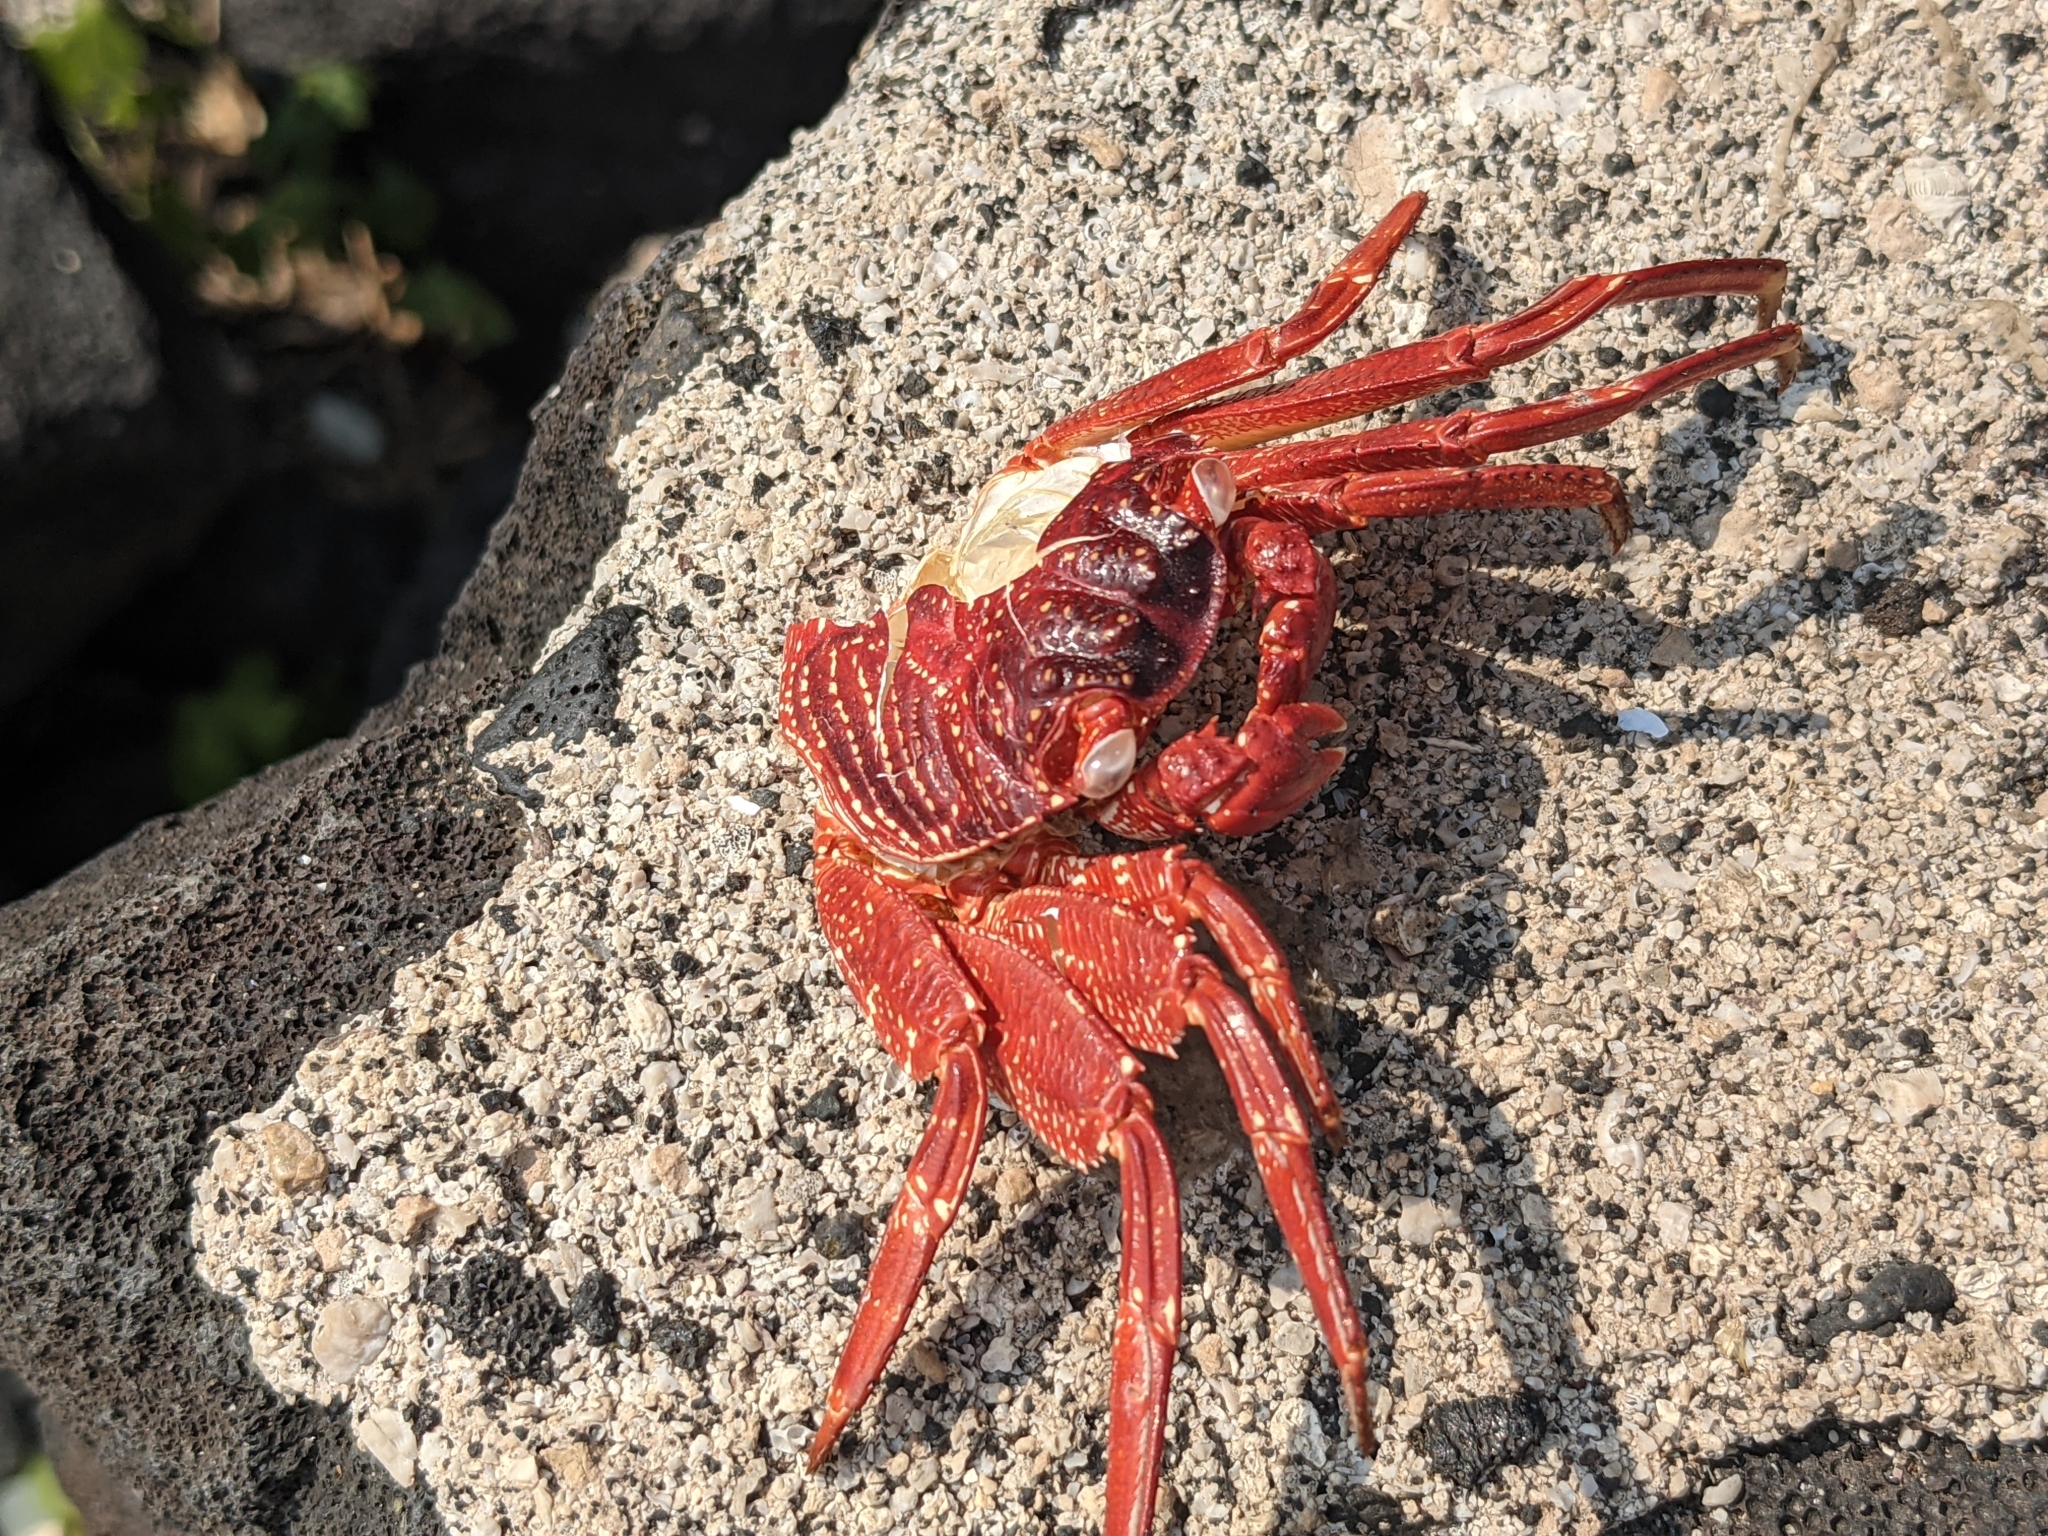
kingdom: Animalia
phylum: Arthropoda
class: Malacostraca
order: Decapoda
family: Grapsidae
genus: Grapsus
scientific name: Grapsus tenuicrustatus
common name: Natal lightfoot crab
